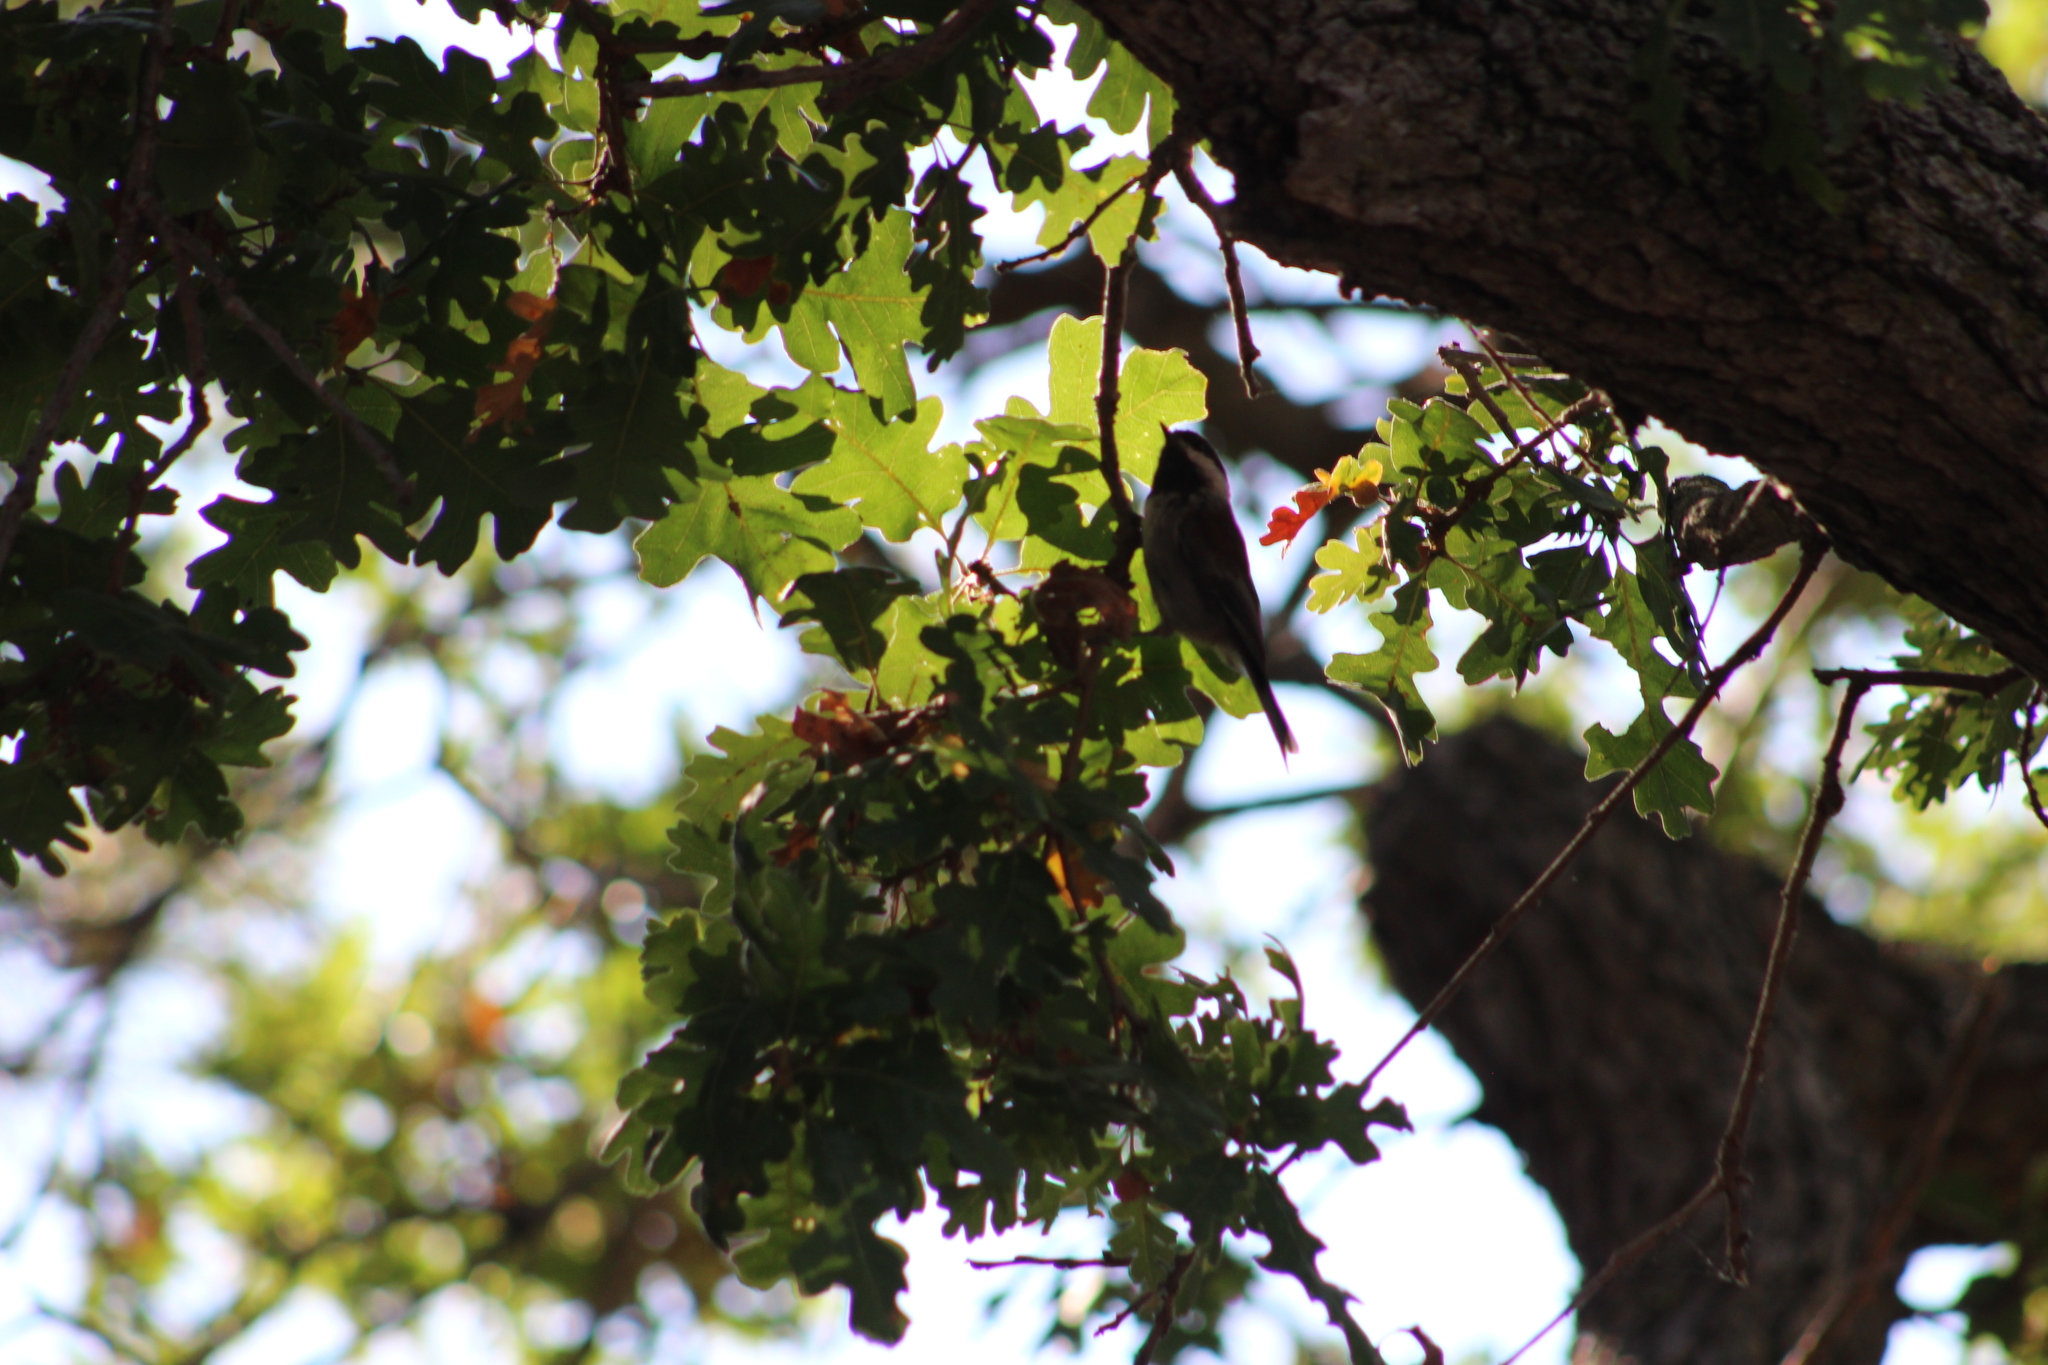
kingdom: Animalia
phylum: Chordata
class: Aves
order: Passeriformes
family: Paridae
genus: Poecile
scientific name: Poecile rufescens
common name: Chestnut-backed chickadee
